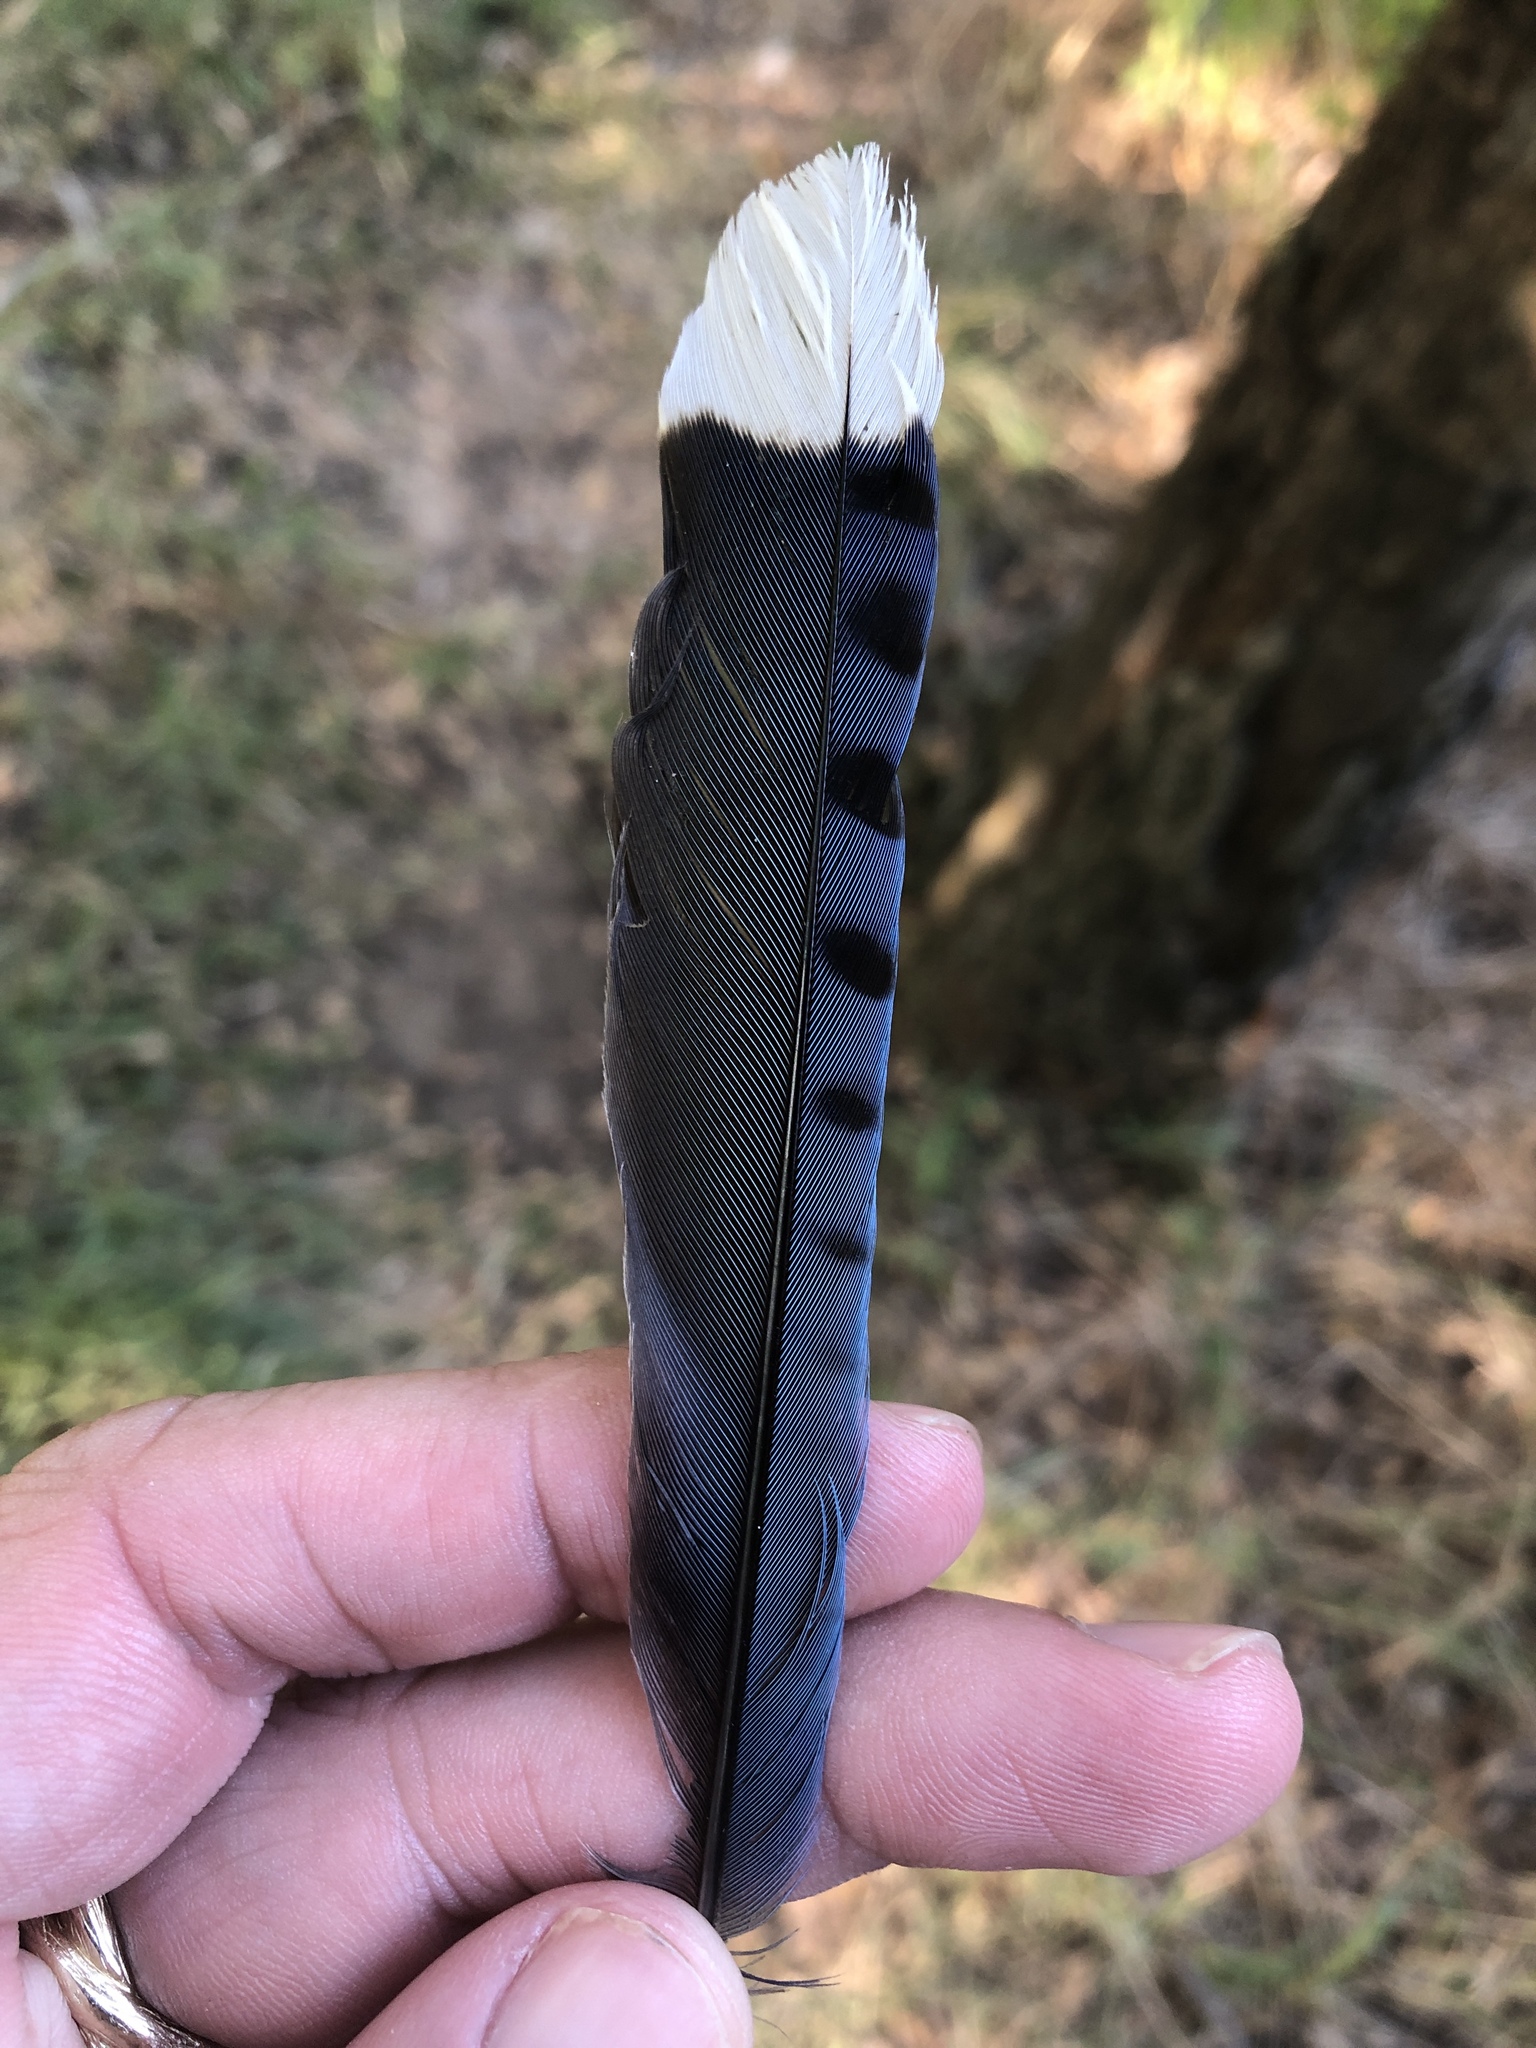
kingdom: Animalia
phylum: Chordata
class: Aves
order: Passeriformes
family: Corvidae
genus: Cyanocitta
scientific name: Cyanocitta cristata
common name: Blue jay
